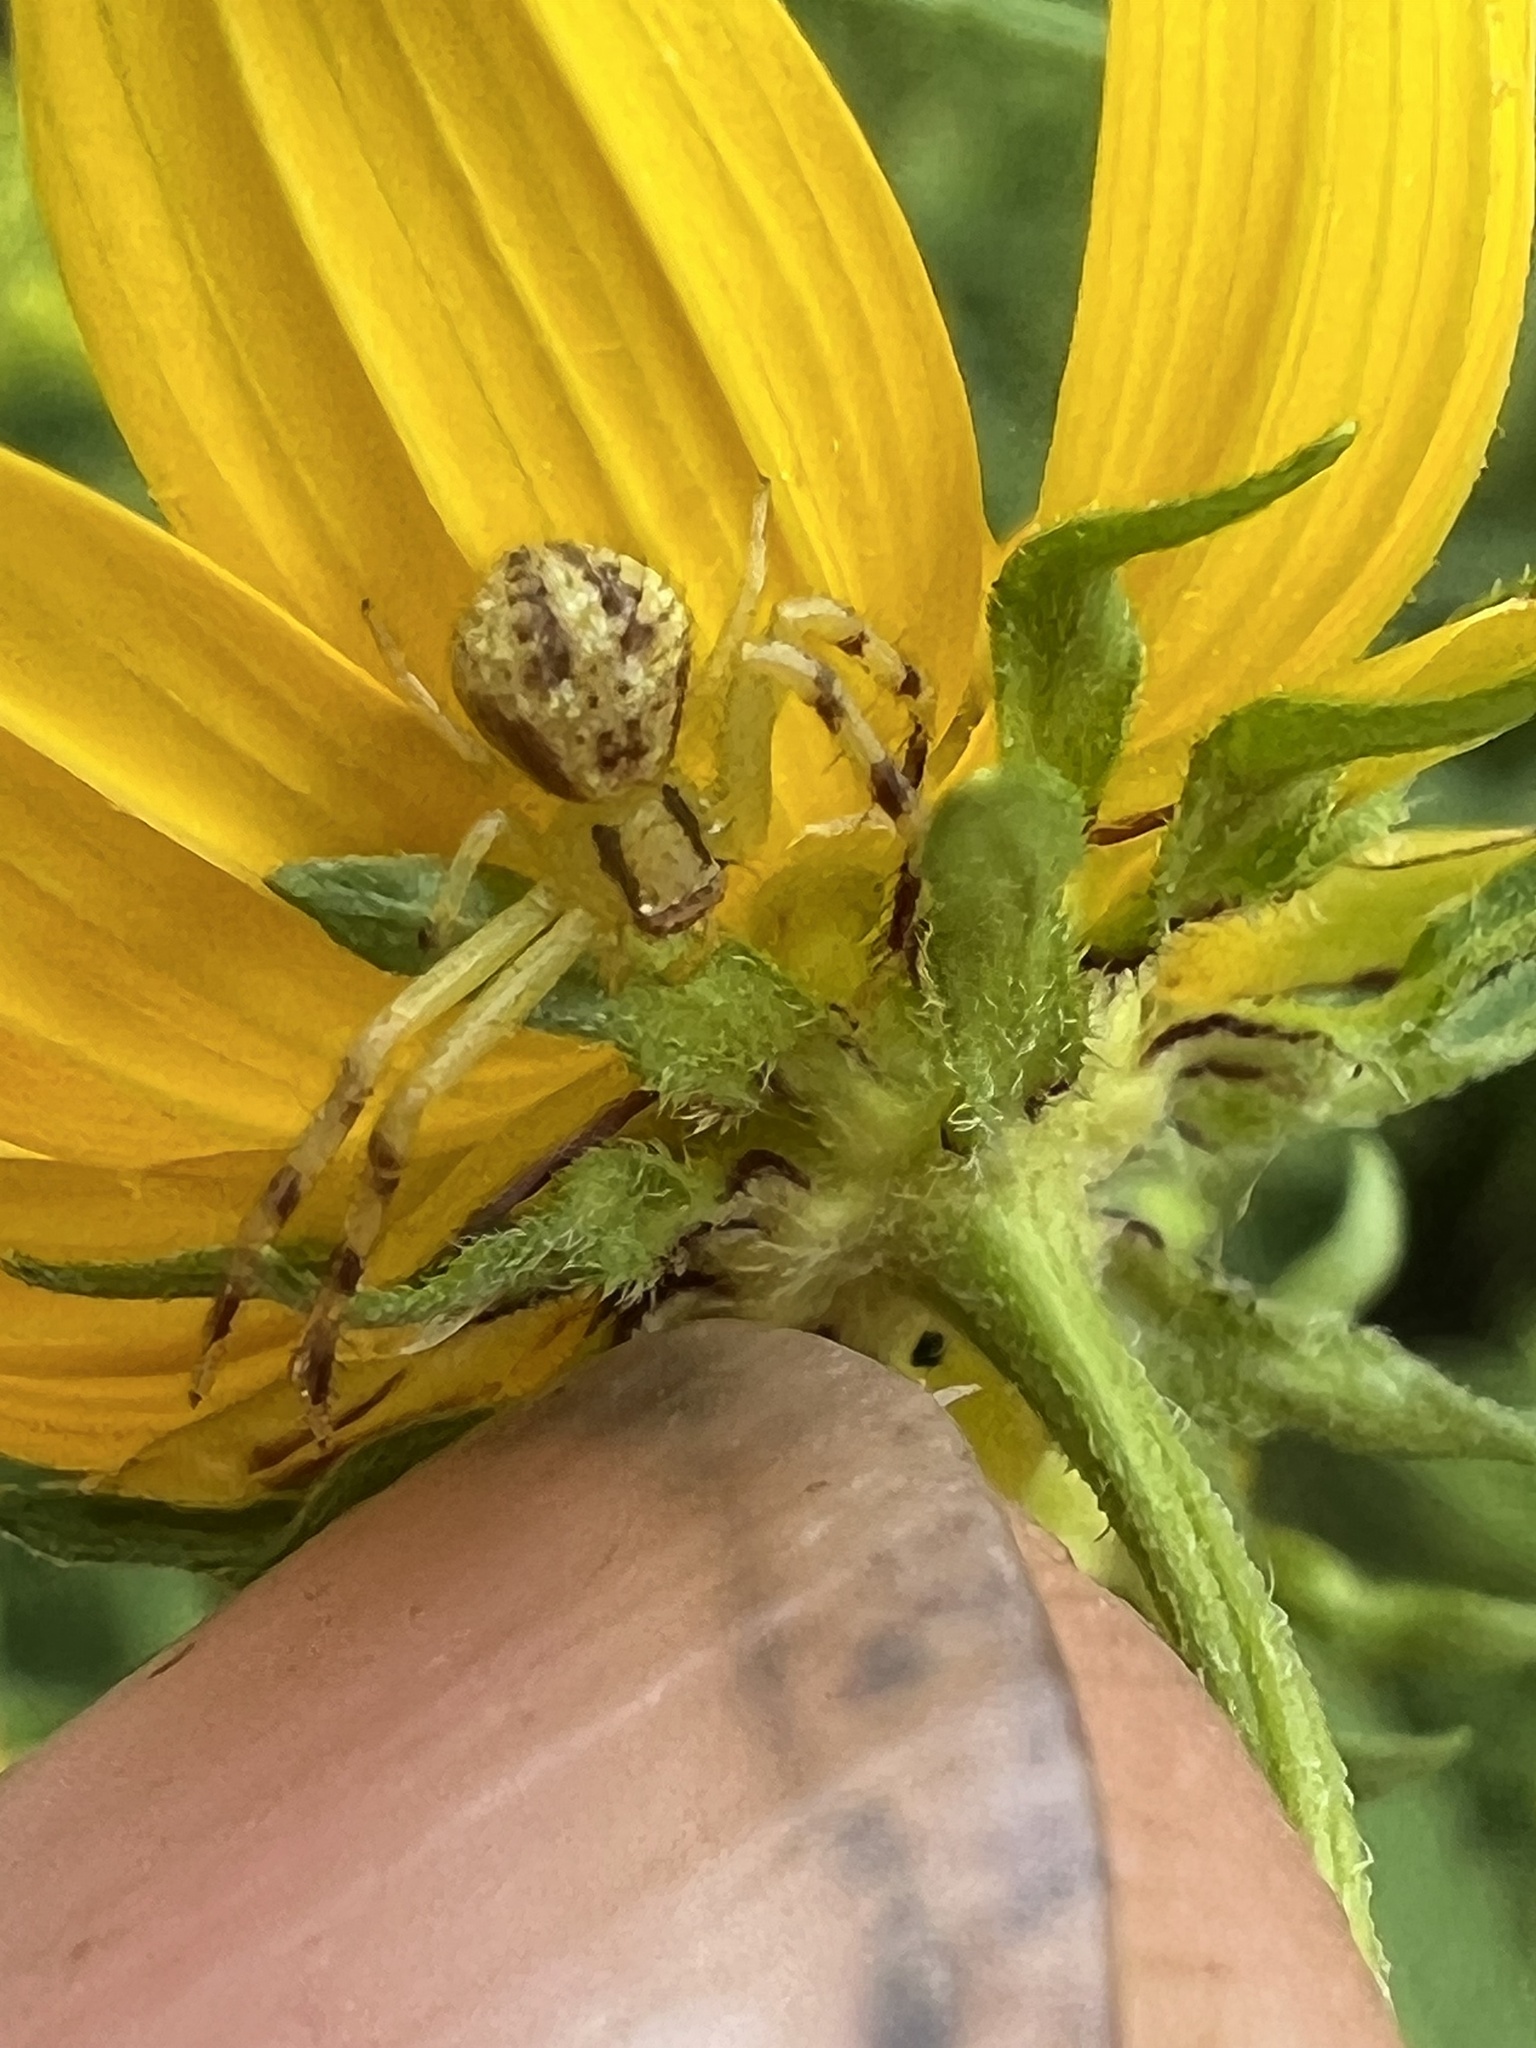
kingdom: Animalia
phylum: Arthropoda
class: Arachnida
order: Araneae
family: Thomisidae
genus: Mecaphesa
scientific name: Mecaphesa asperata
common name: Crab spiders
